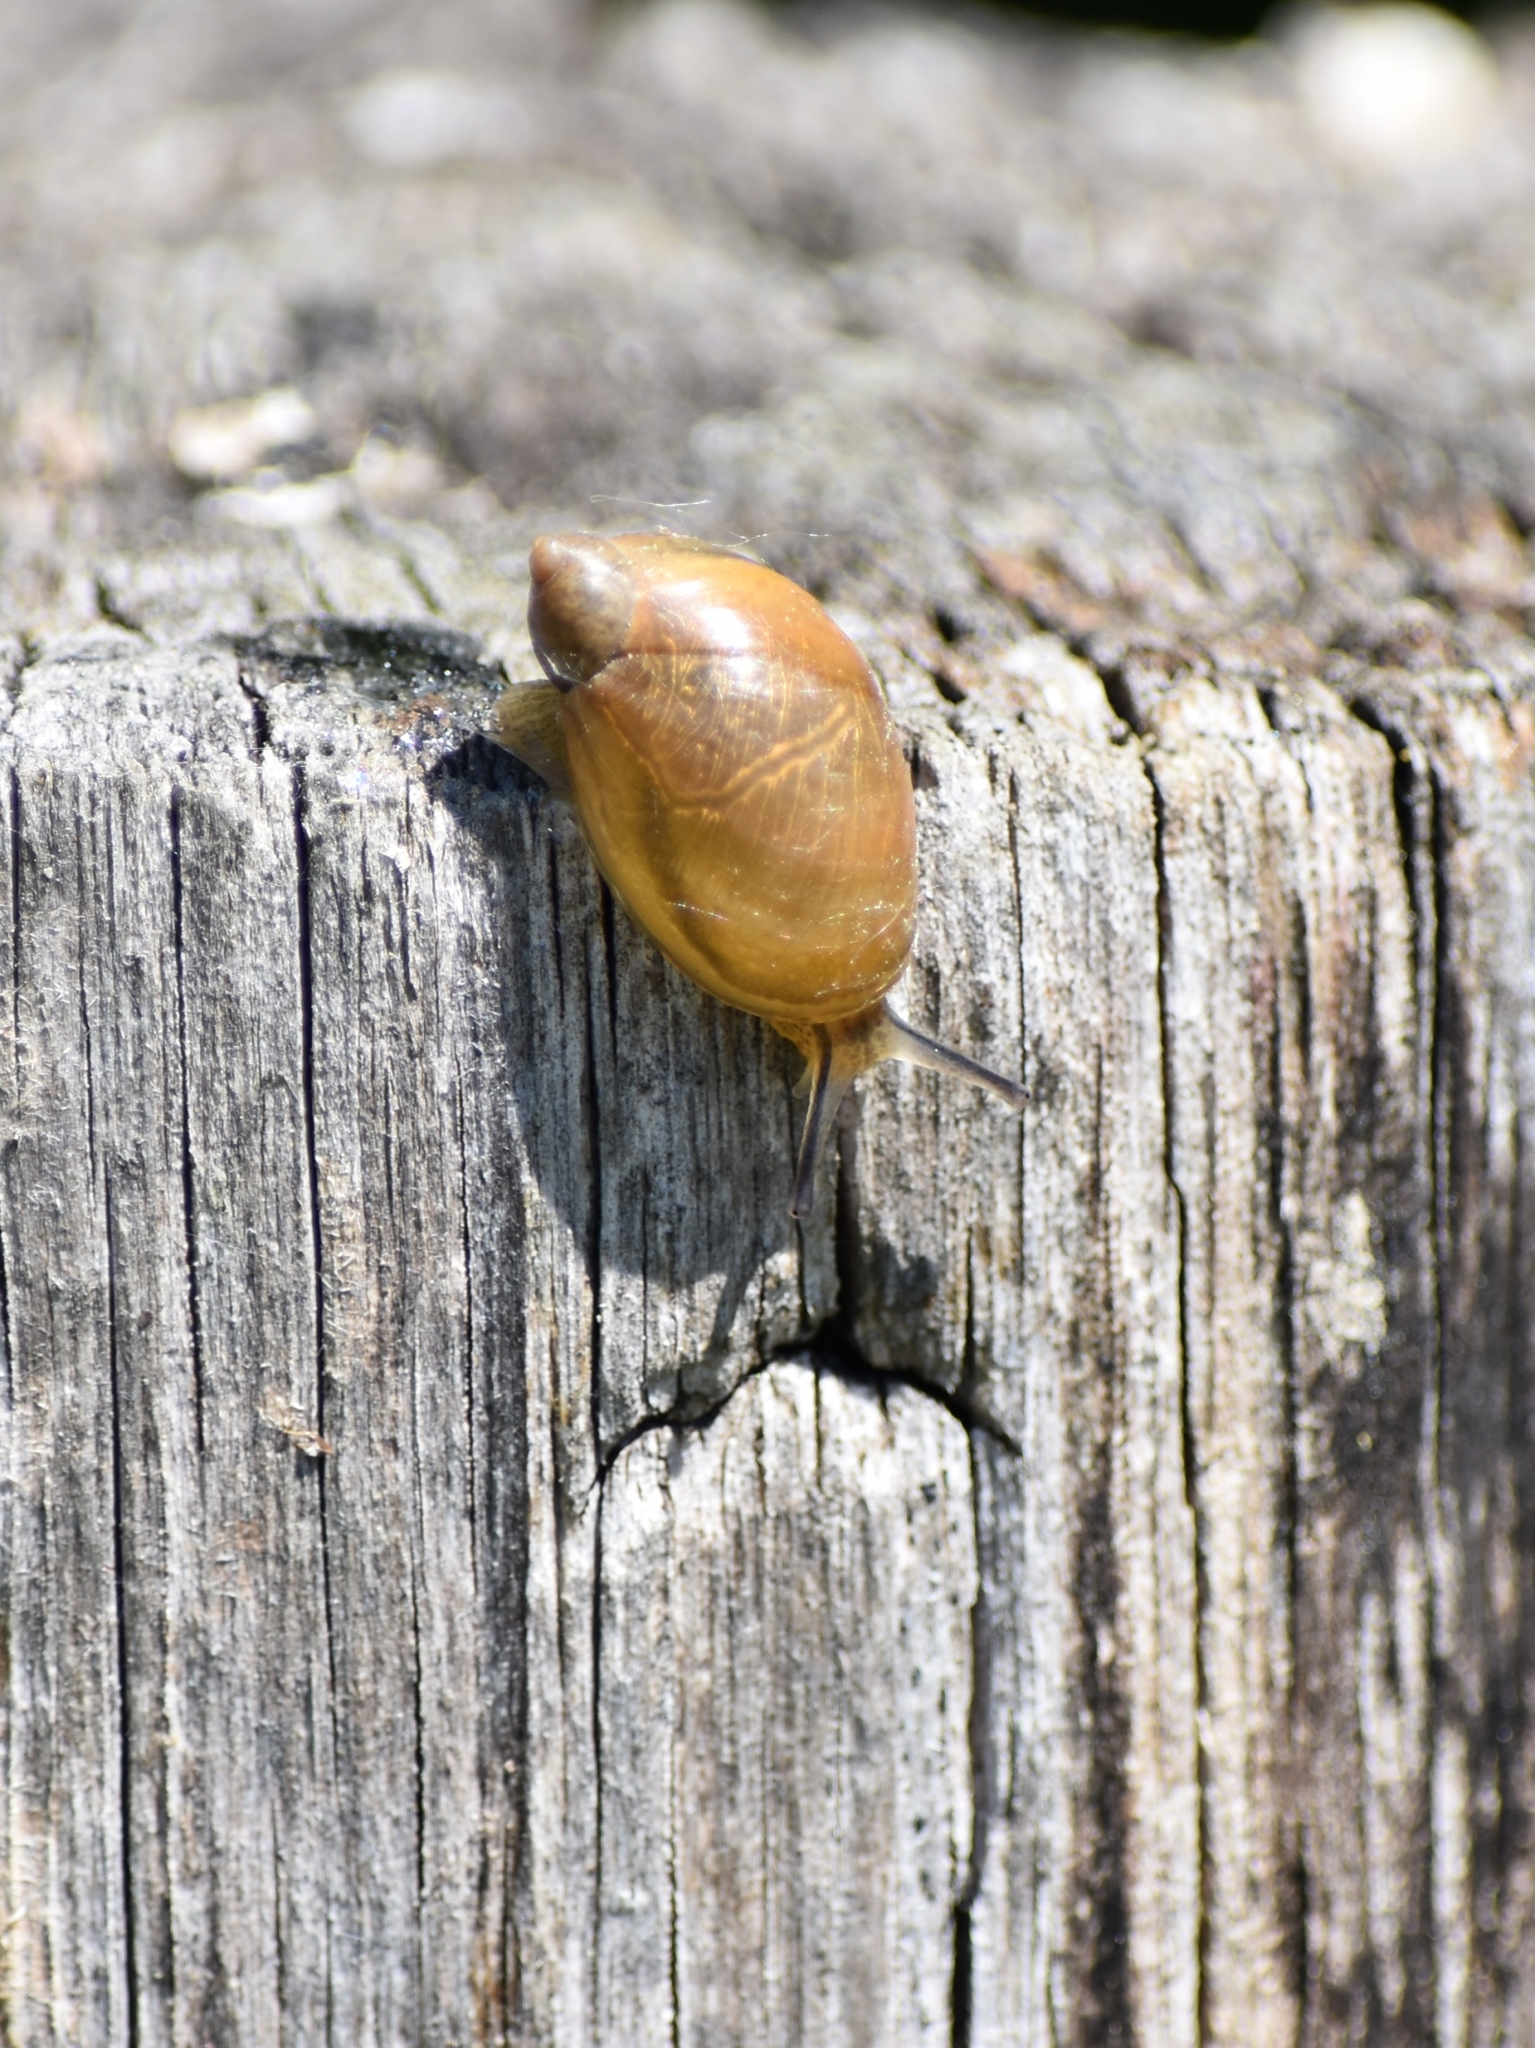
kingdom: Animalia
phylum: Mollusca
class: Gastropoda
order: Stylommatophora
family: Succineidae
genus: Succinea
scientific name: Succinea putris
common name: European ambersnail
